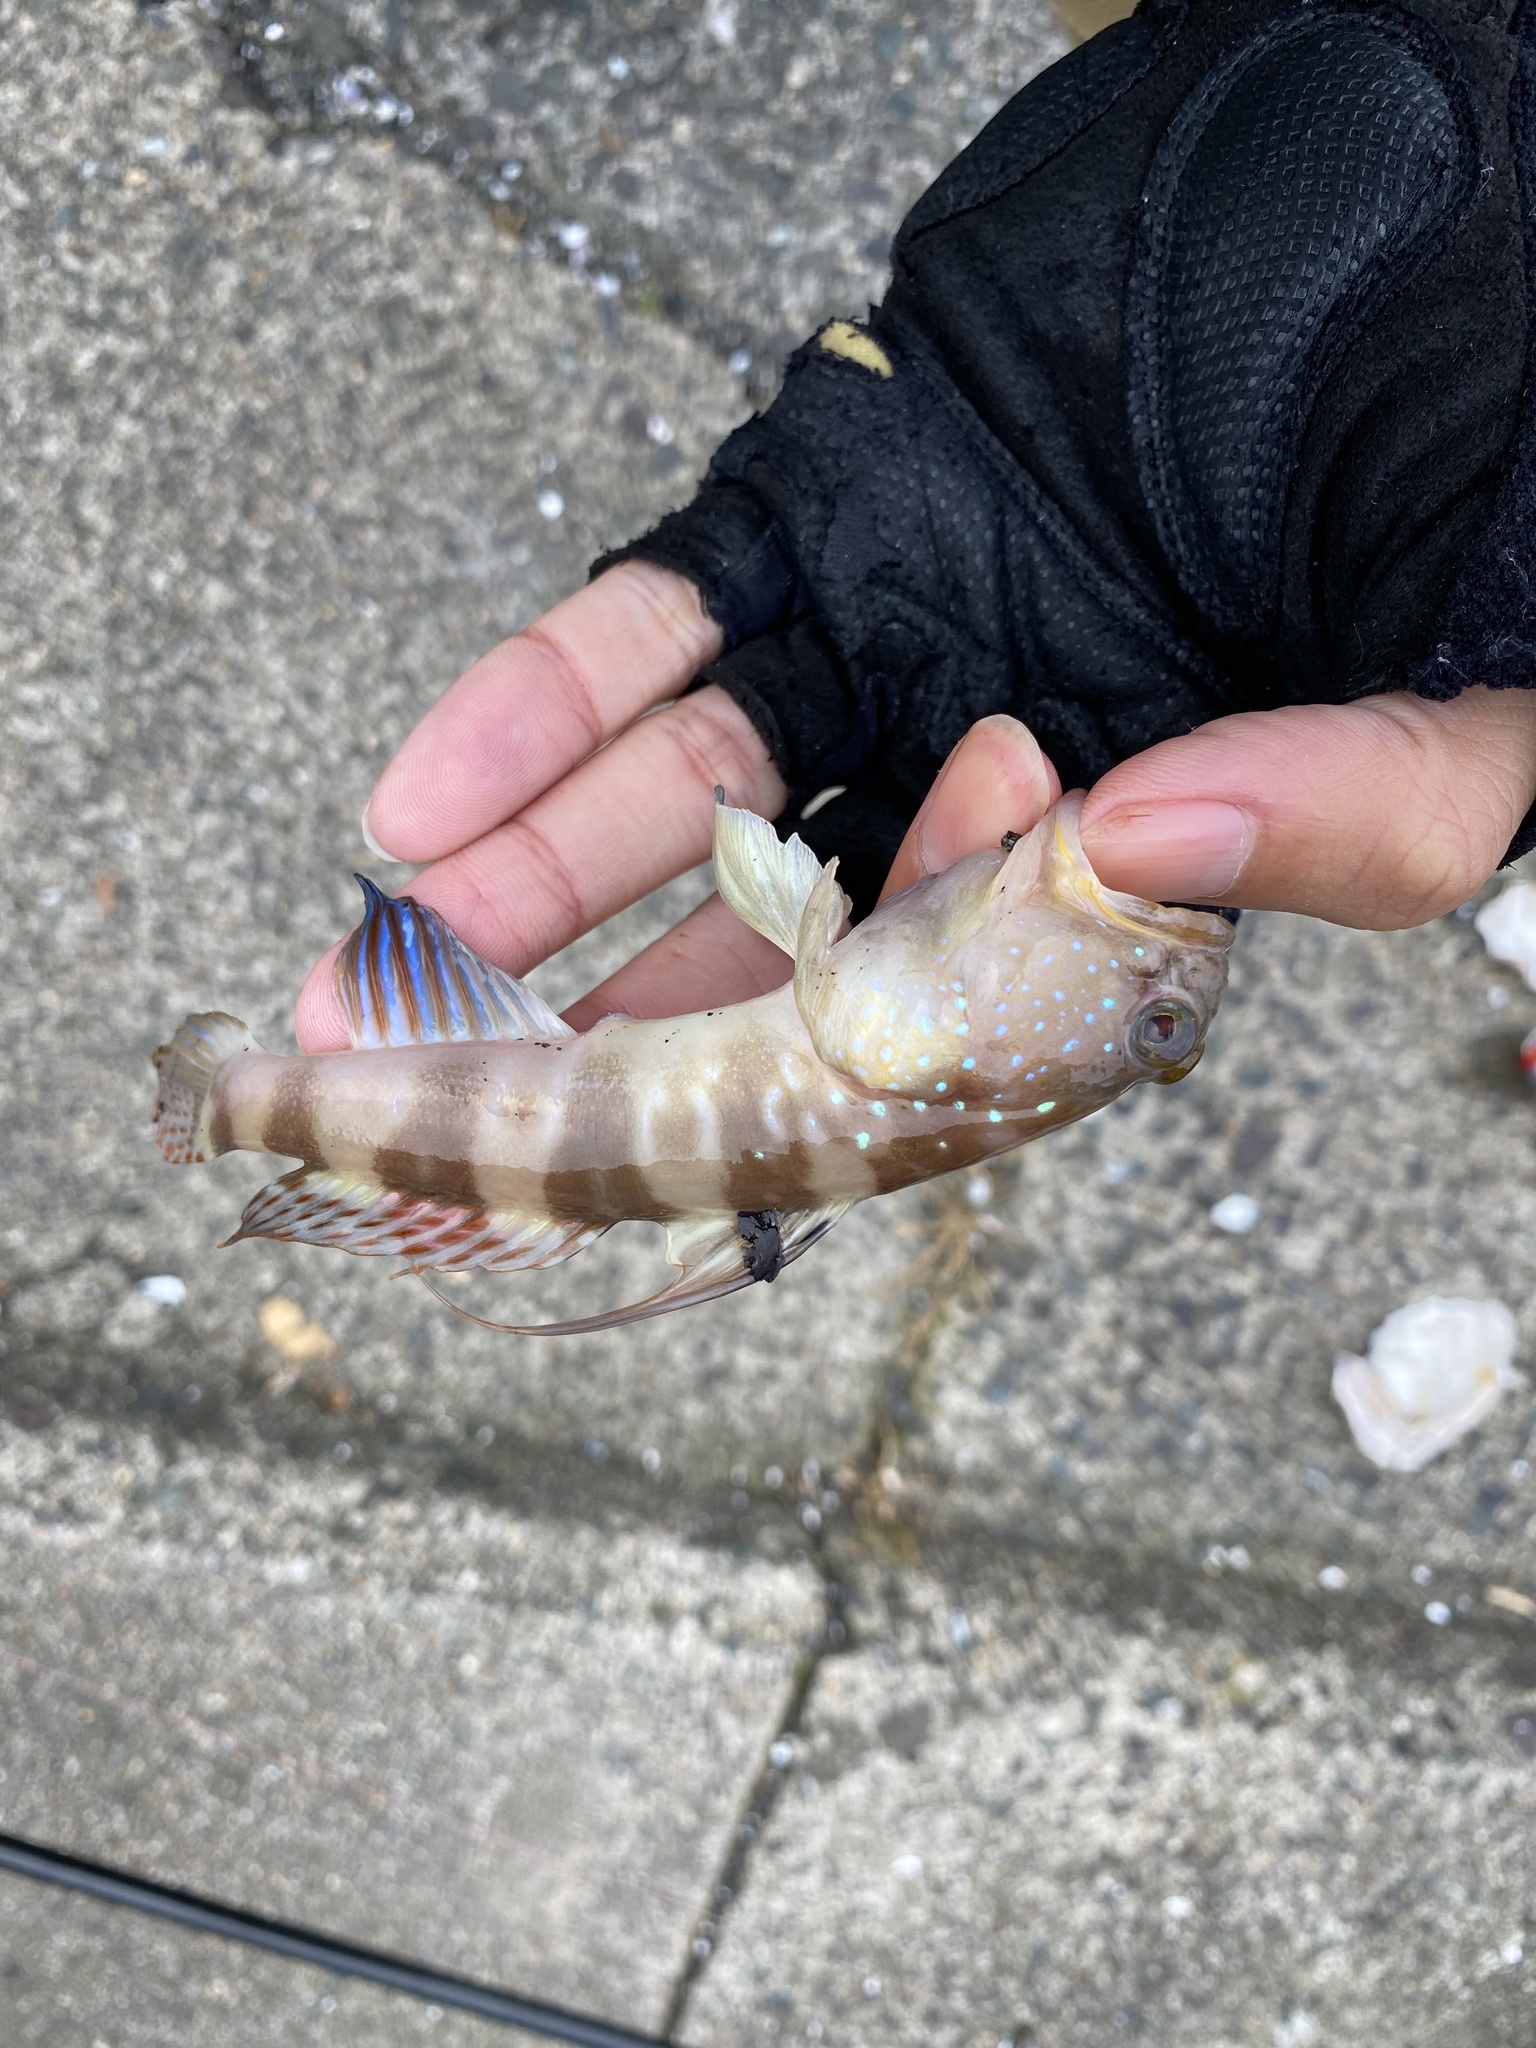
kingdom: Animalia
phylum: Chordata
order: Perciformes
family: Gobiidae
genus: Myersina
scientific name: Myersina filifer
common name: Thread goby
